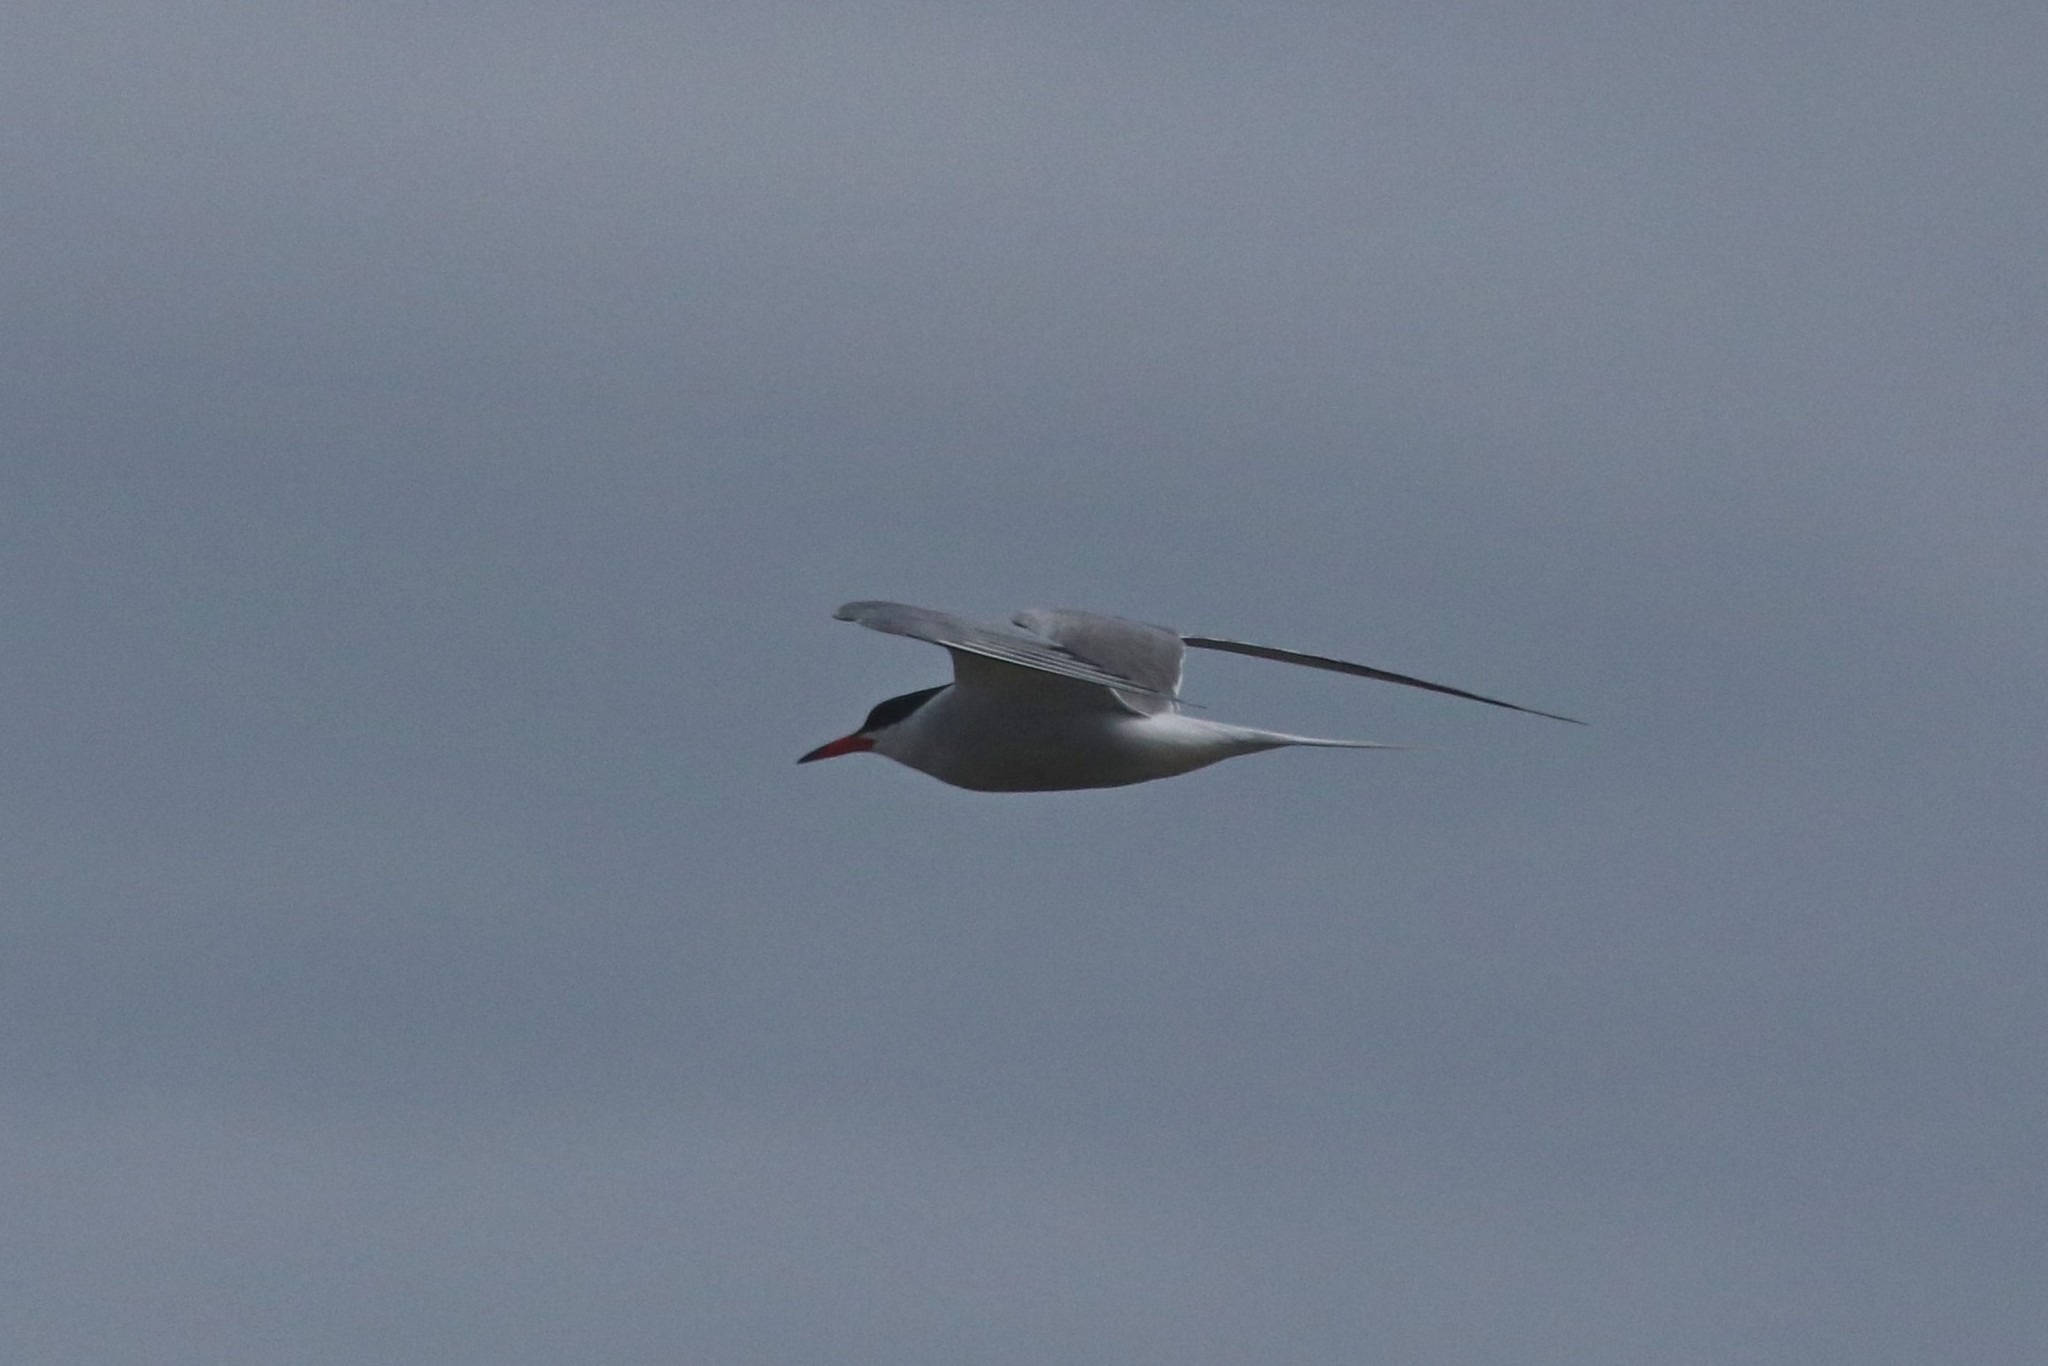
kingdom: Animalia
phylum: Chordata
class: Aves
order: Charadriiformes
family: Laridae
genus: Sterna
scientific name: Sterna hirundo
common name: Common tern
